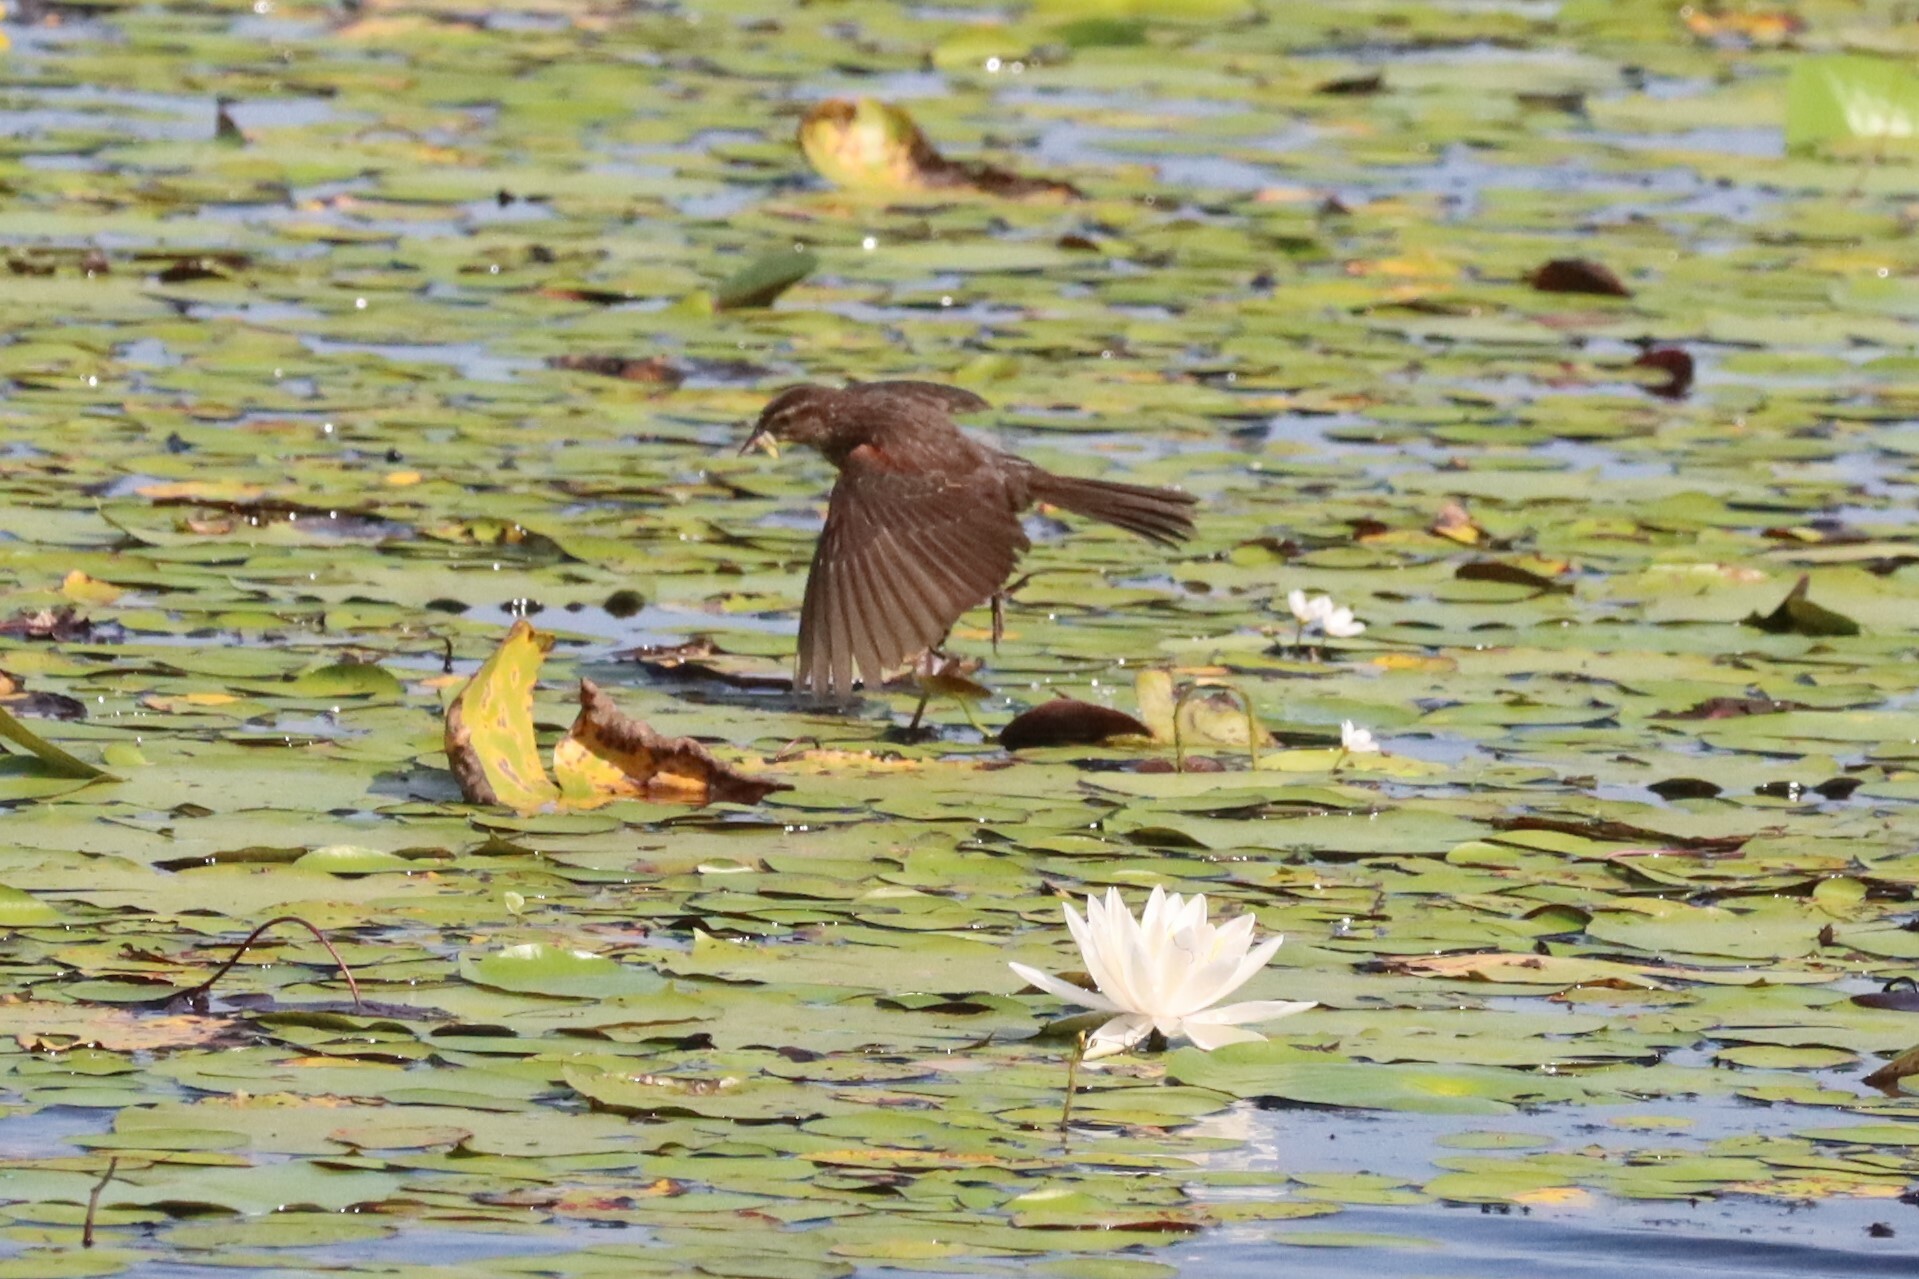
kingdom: Animalia
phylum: Chordata
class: Aves
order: Passeriformes
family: Icteridae
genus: Agelaius
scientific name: Agelaius phoeniceus
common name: Red-winged blackbird
